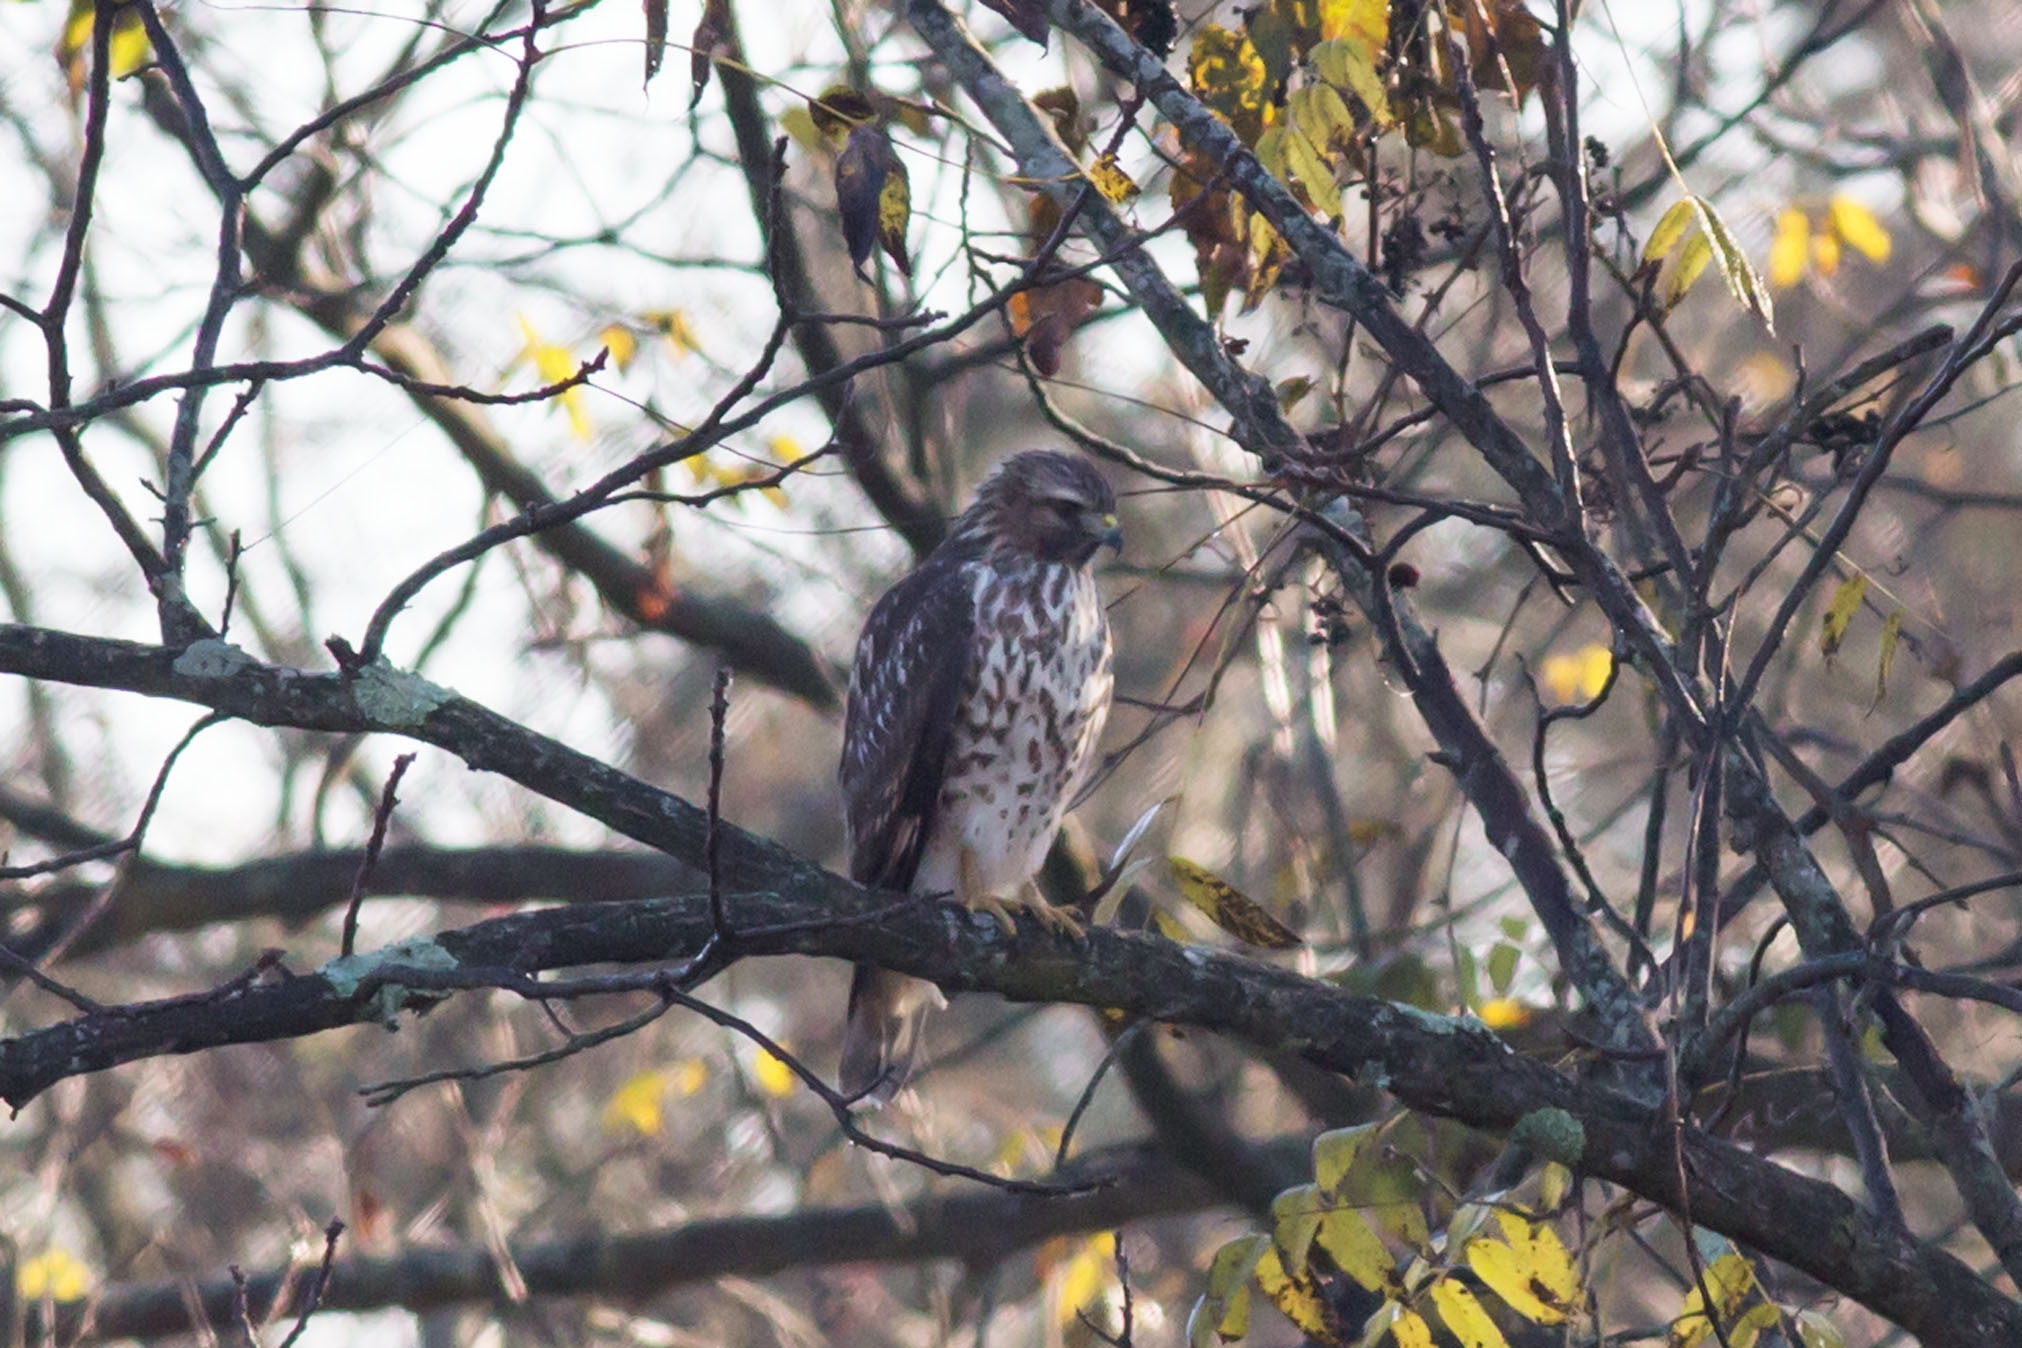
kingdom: Animalia
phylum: Chordata
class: Aves
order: Accipitriformes
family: Accipitridae
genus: Buteo
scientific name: Buteo lineatus
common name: Red-shouldered hawk
